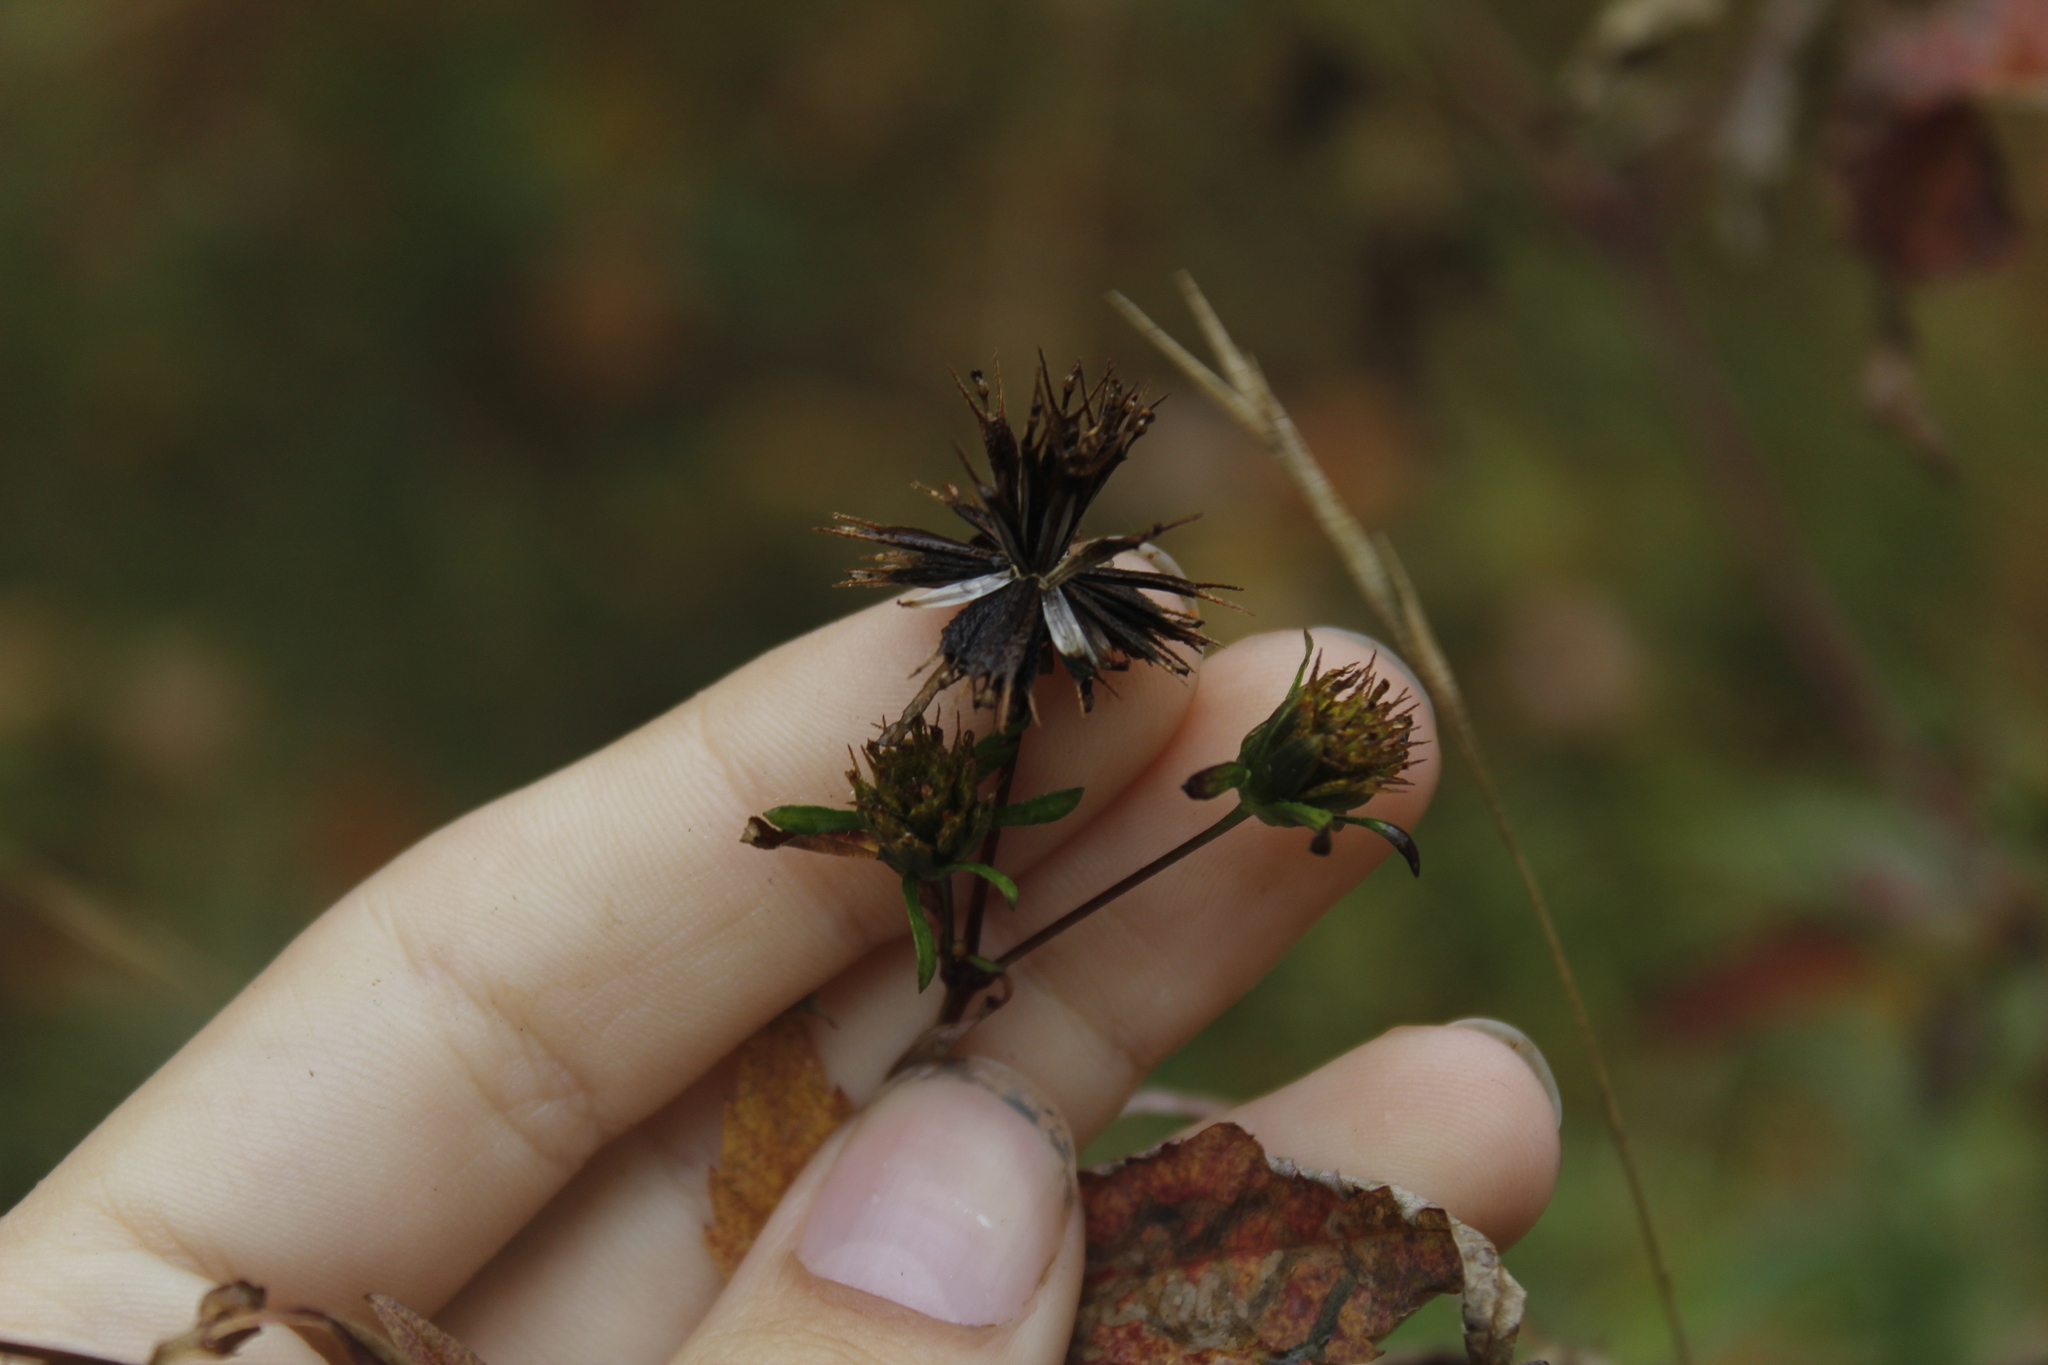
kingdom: Plantae
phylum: Tracheophyta
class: Magnoliopsida
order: Asterales
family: Asteraceae
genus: Bidens
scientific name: Bidens frondosa
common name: Beggarticks
